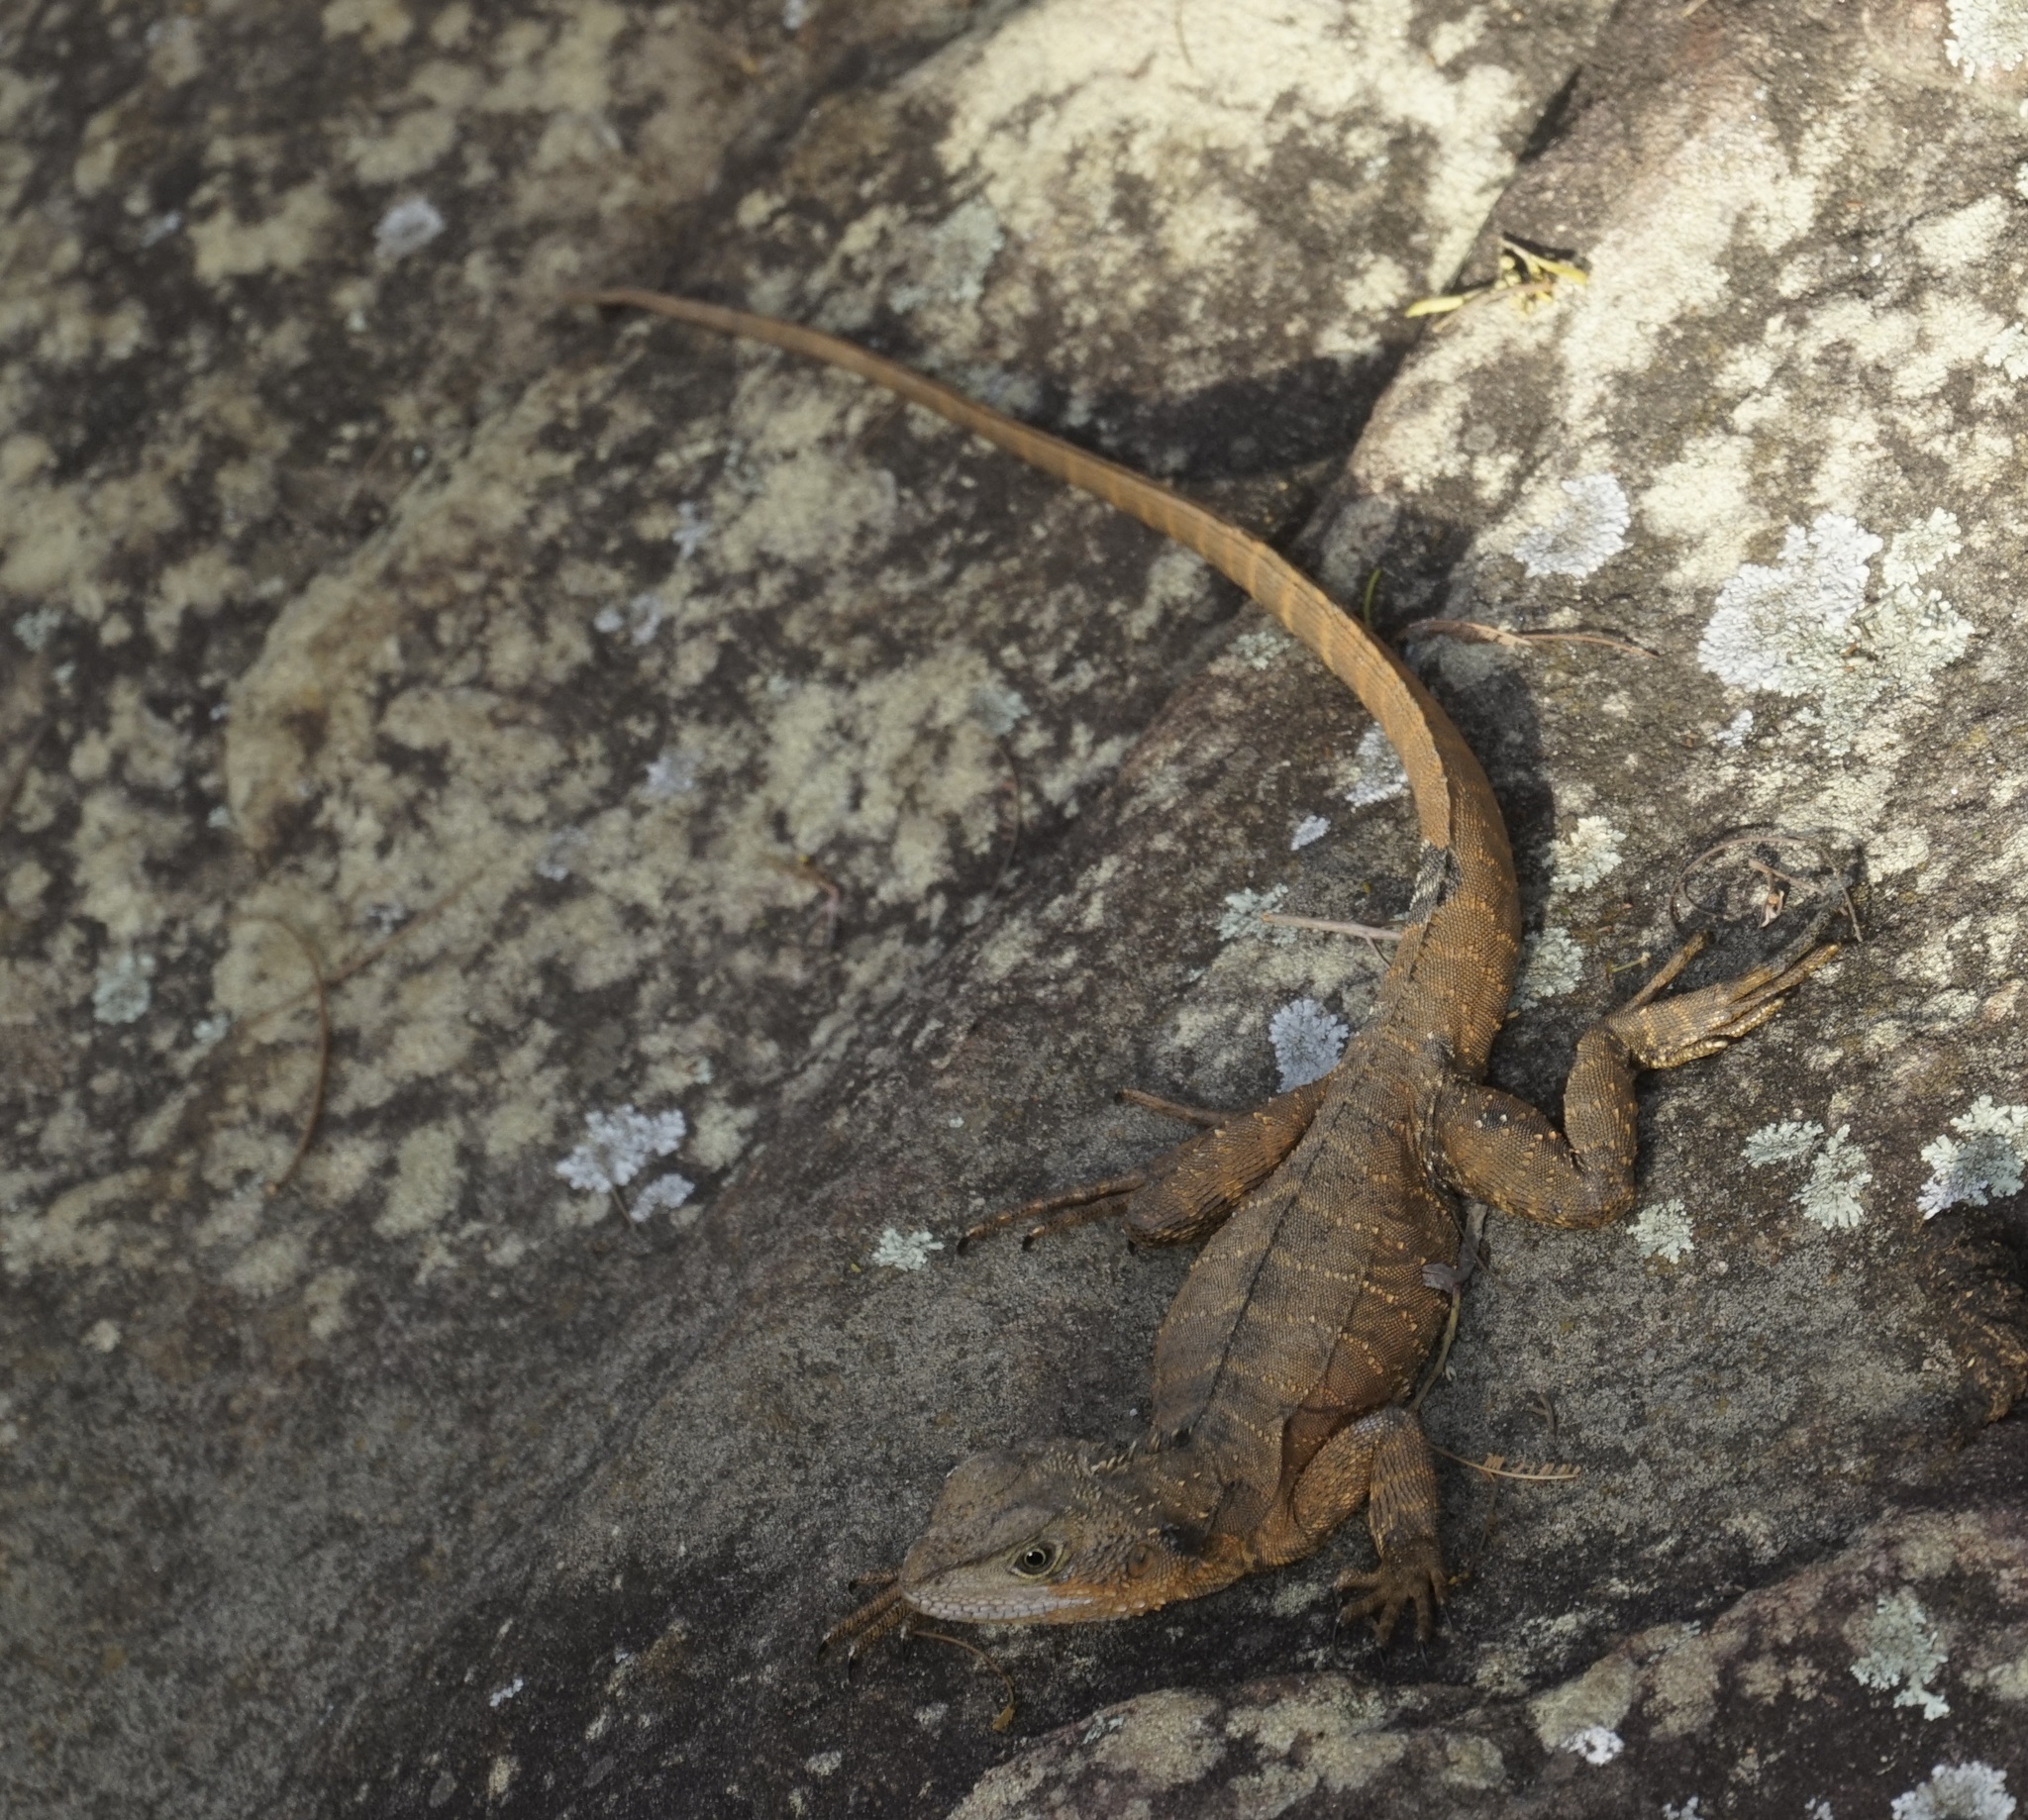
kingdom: Animalia
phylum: Chordata
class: Squamata
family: Agamidae
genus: Intellagama
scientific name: Intellagama lesueurii
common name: Eastern water dragon
